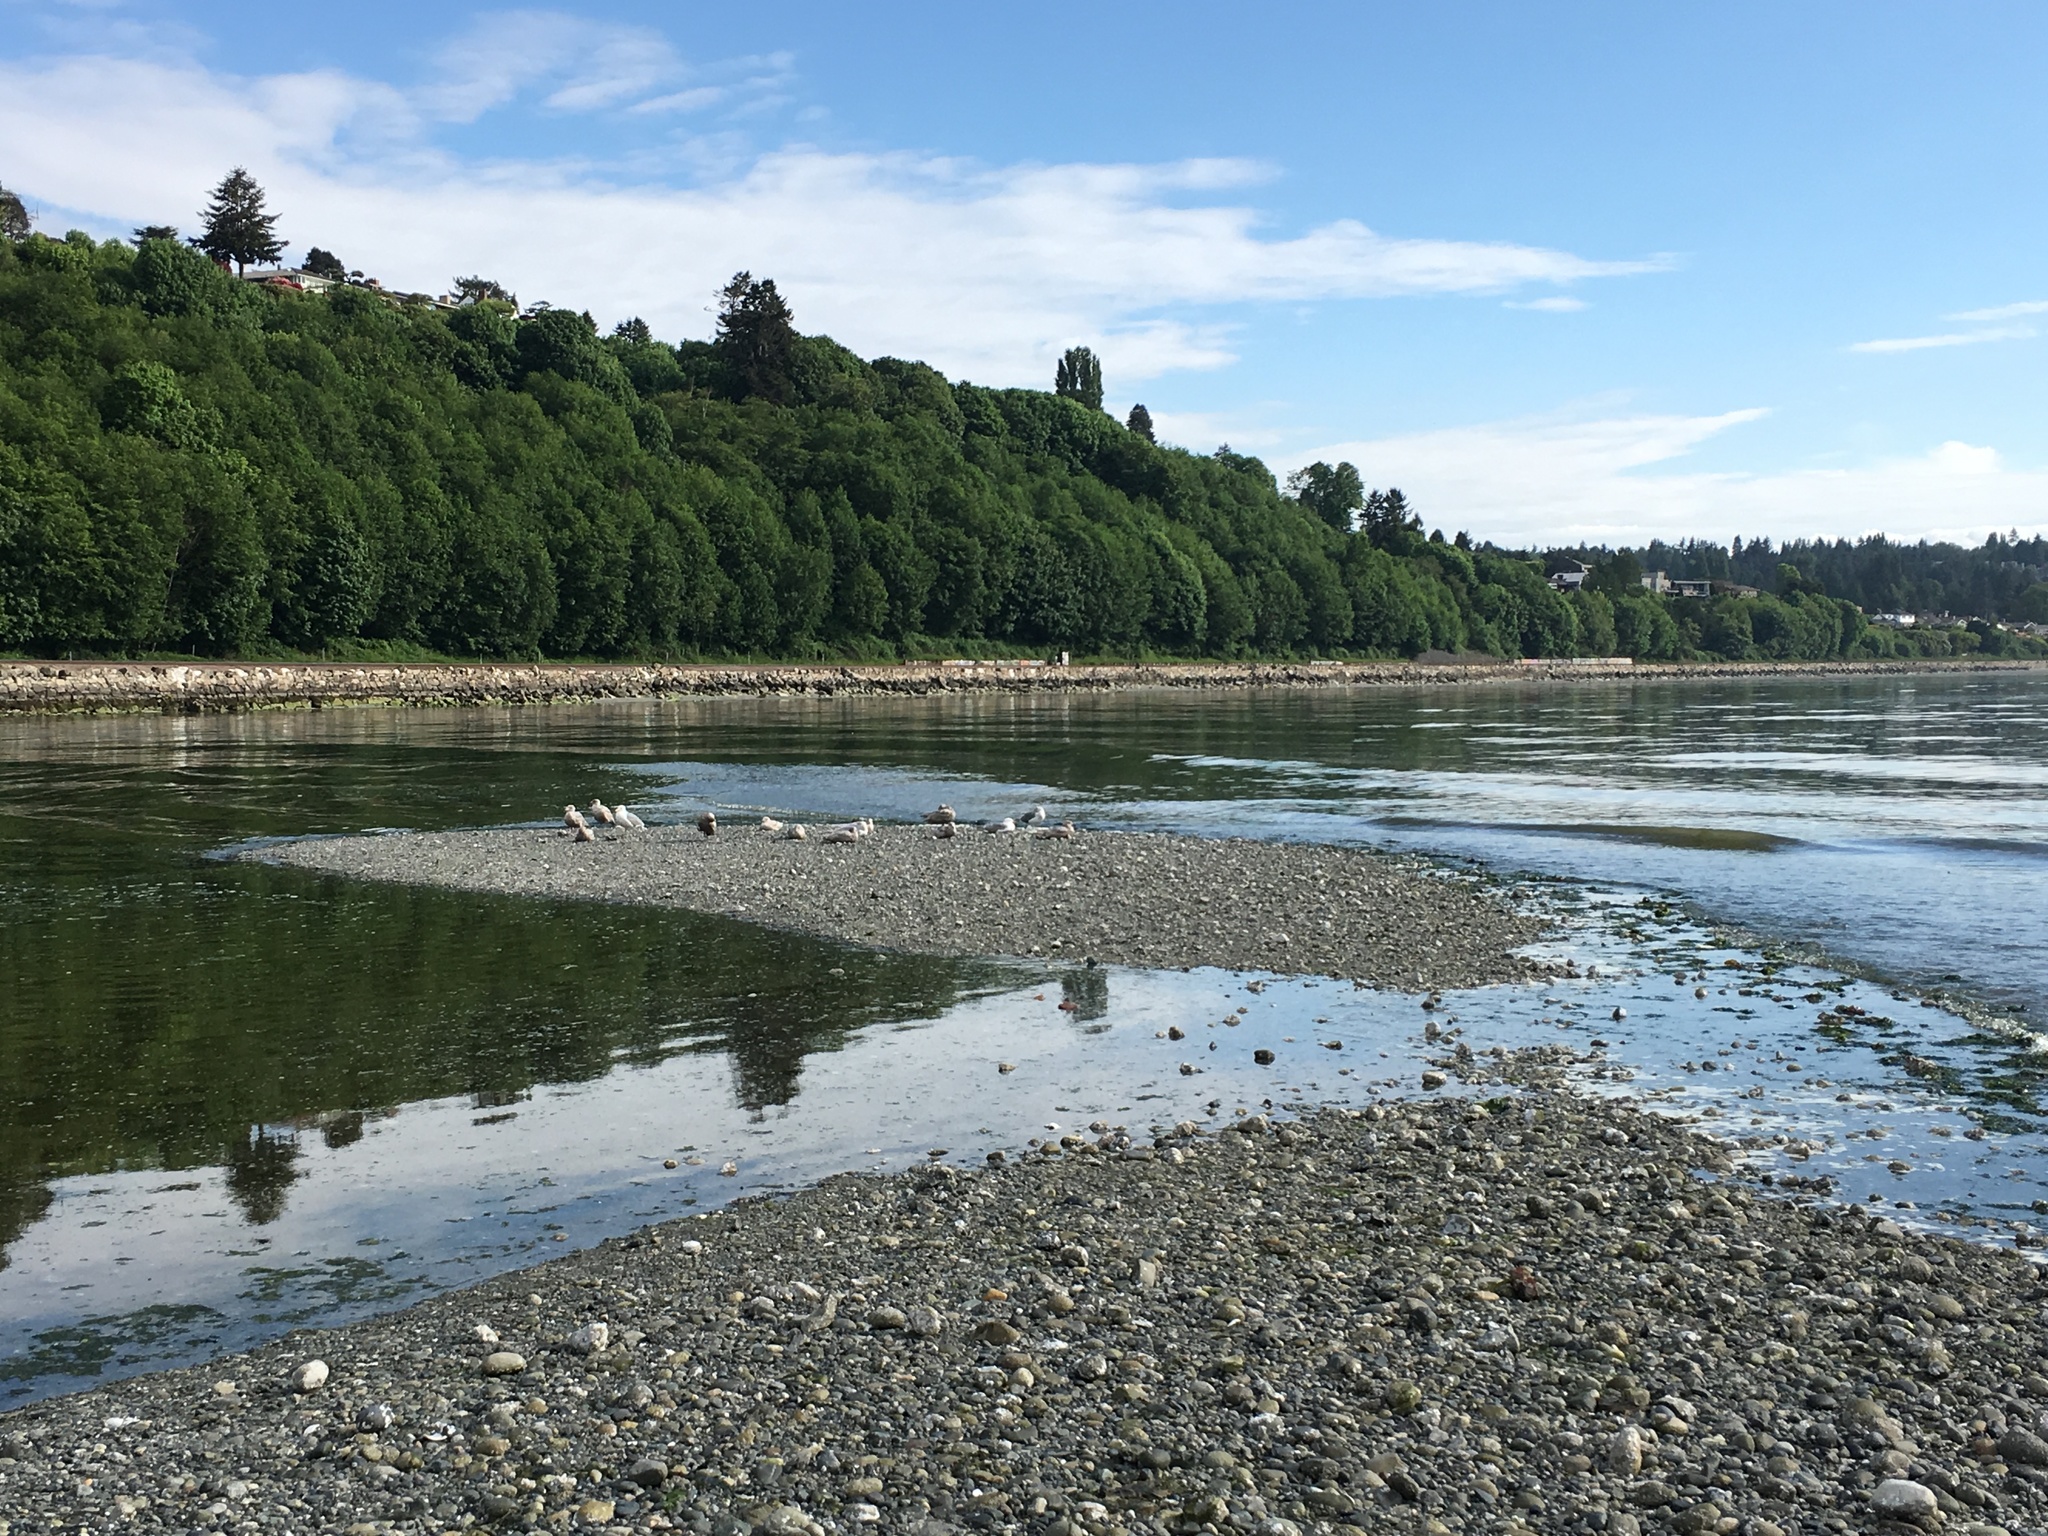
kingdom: Animalia
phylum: Chordata
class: Aves
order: Charadriiformes
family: Laridae
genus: Larus
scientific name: Larus glaucescens
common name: Glaucous-winged gull
